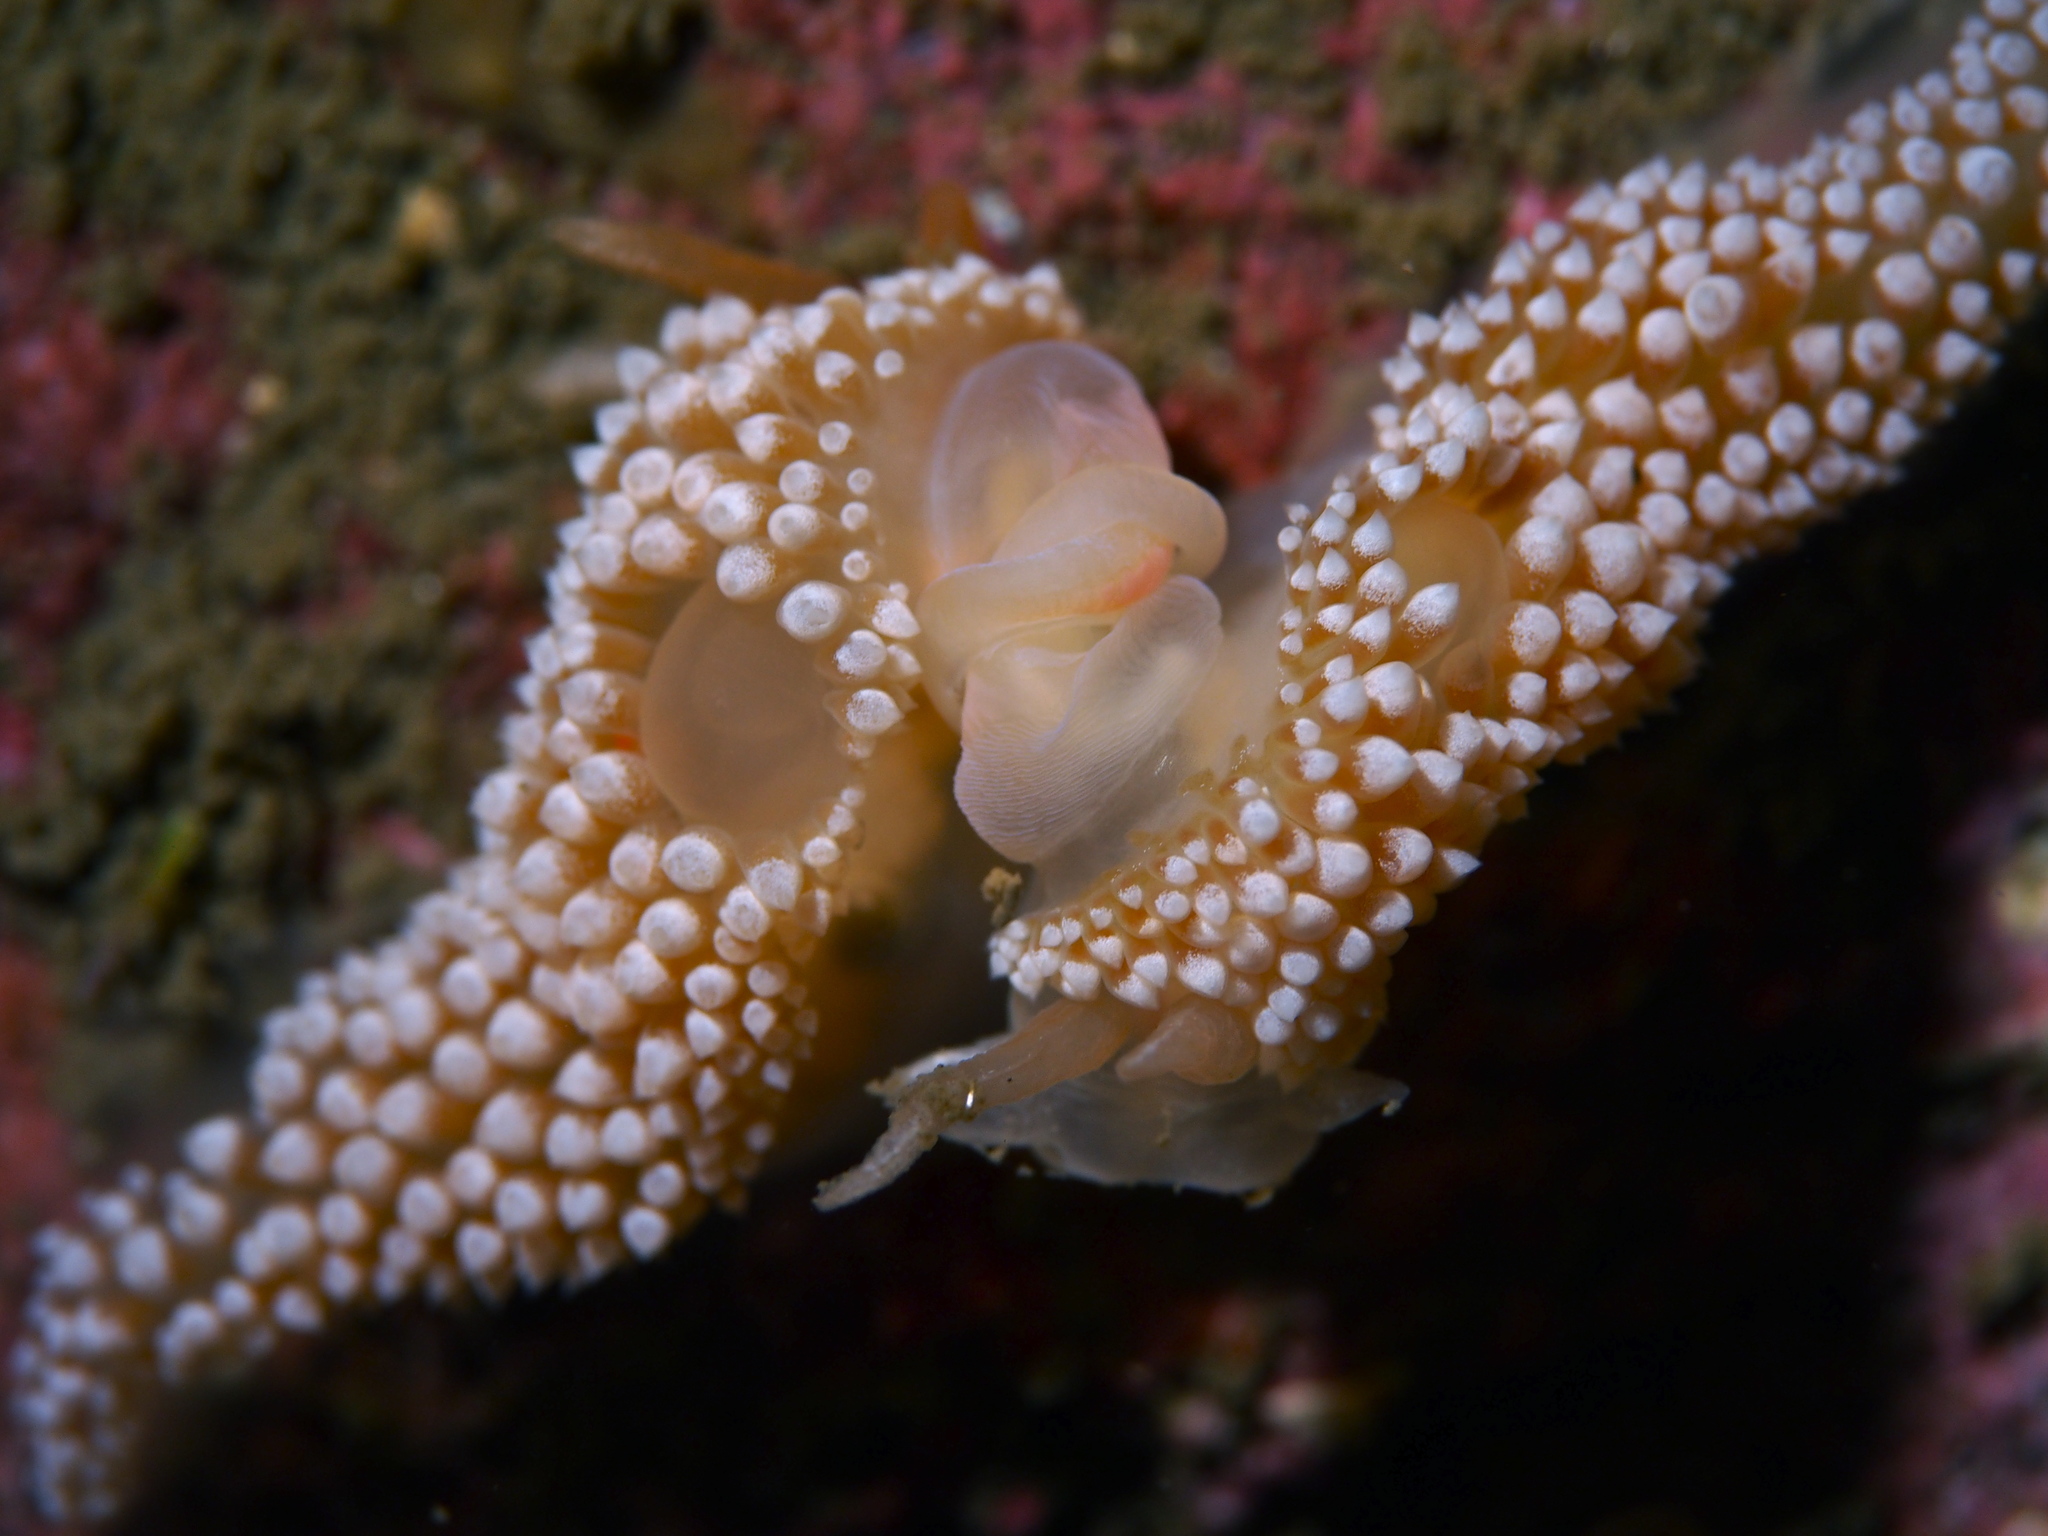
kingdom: Animalia
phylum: Mollusca
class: Gastropoda
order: Nudibranchia
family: Coryphellidae
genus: Coryphella
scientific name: Coryphella verrucosa
